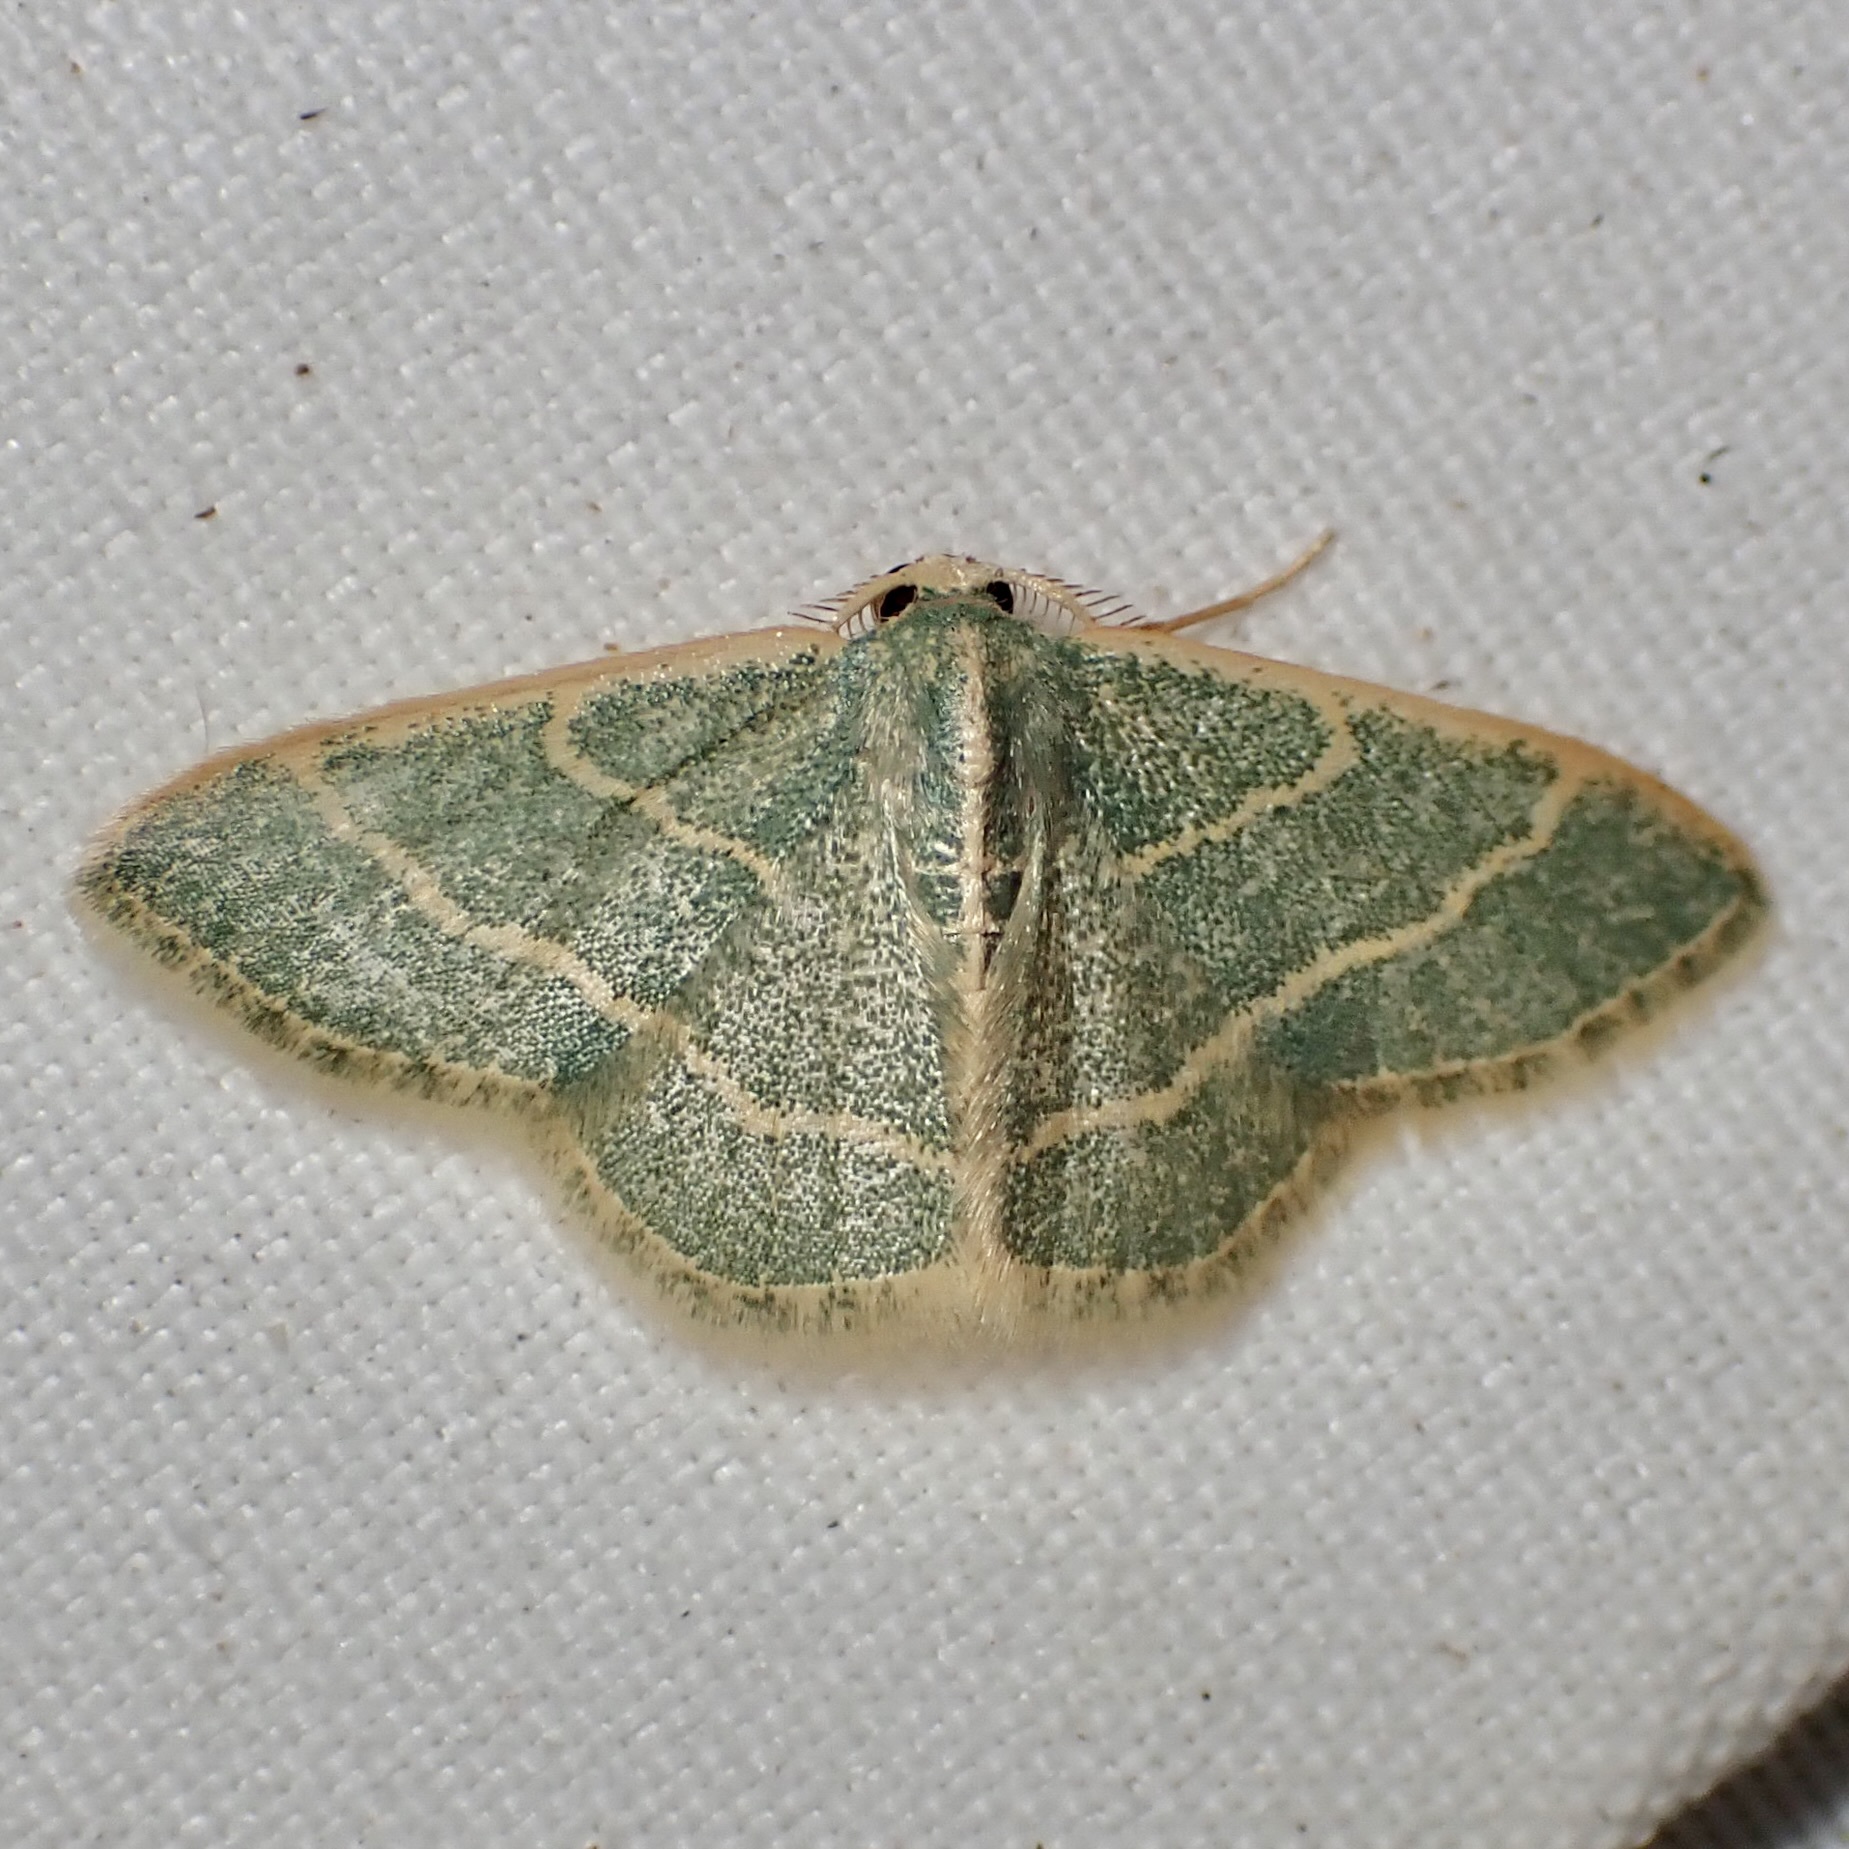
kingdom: Animalia
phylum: Arthropoda
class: Insecta
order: Lepidoptera
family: Geometridae
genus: Chlorochlamys
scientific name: Chlorochlamys appellaria
